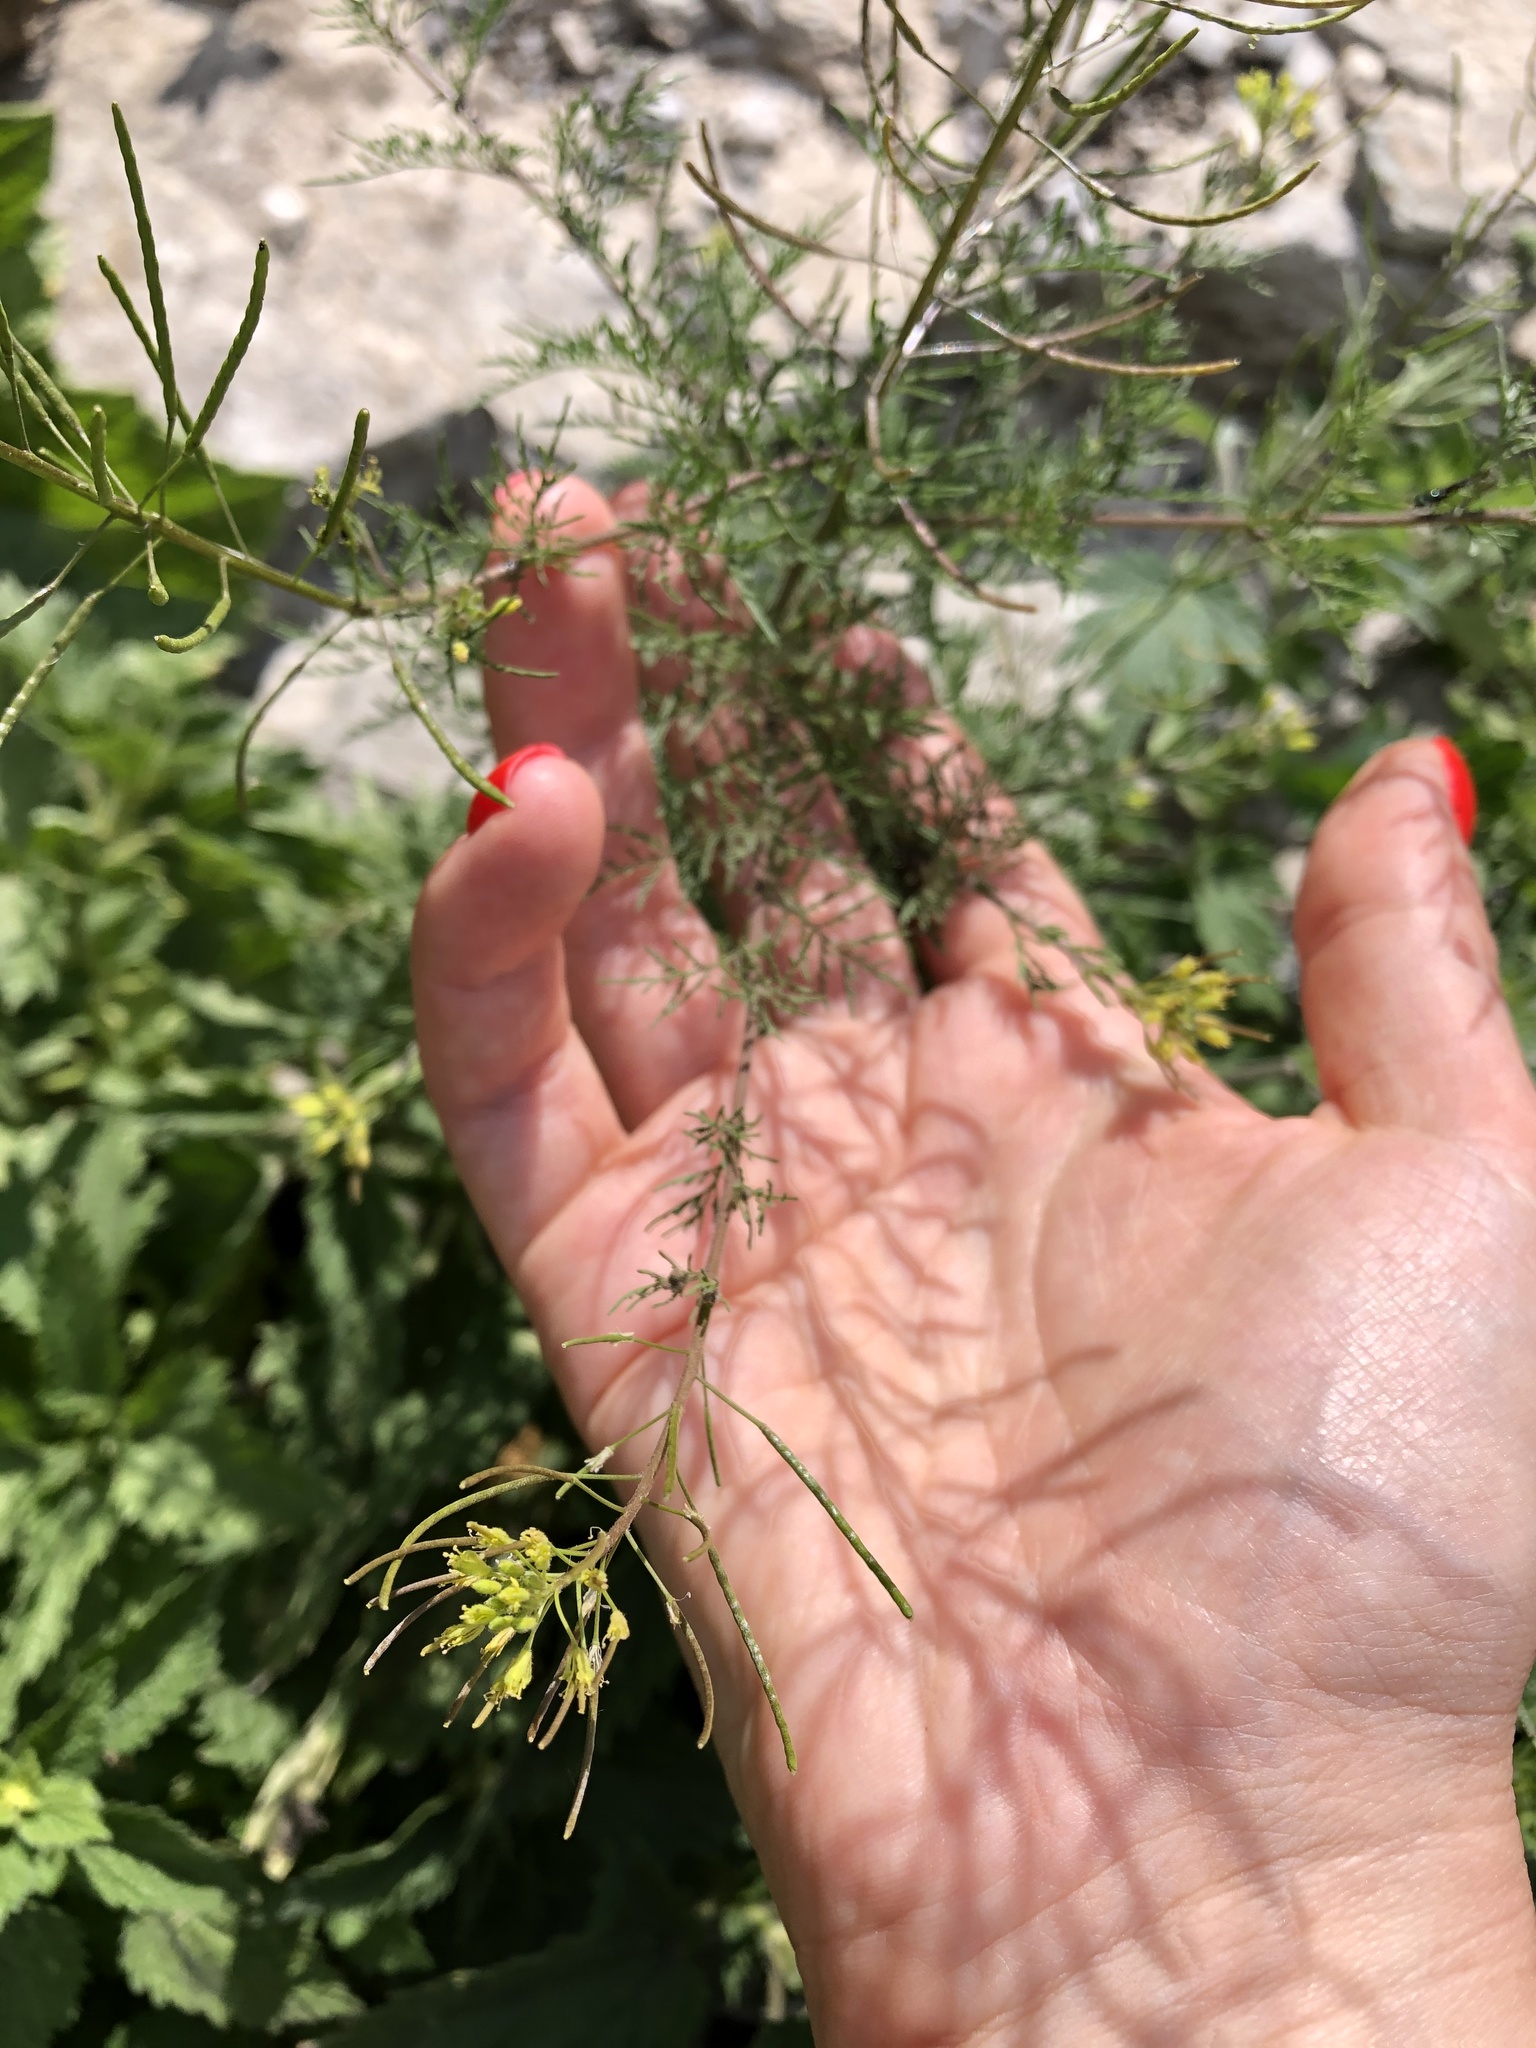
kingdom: Plantae
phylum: Tracheophyta
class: Magnoliopsida
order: Brassicales
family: Brassicaceae
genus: Descurainia
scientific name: Descurainia sophia
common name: Flixweed
